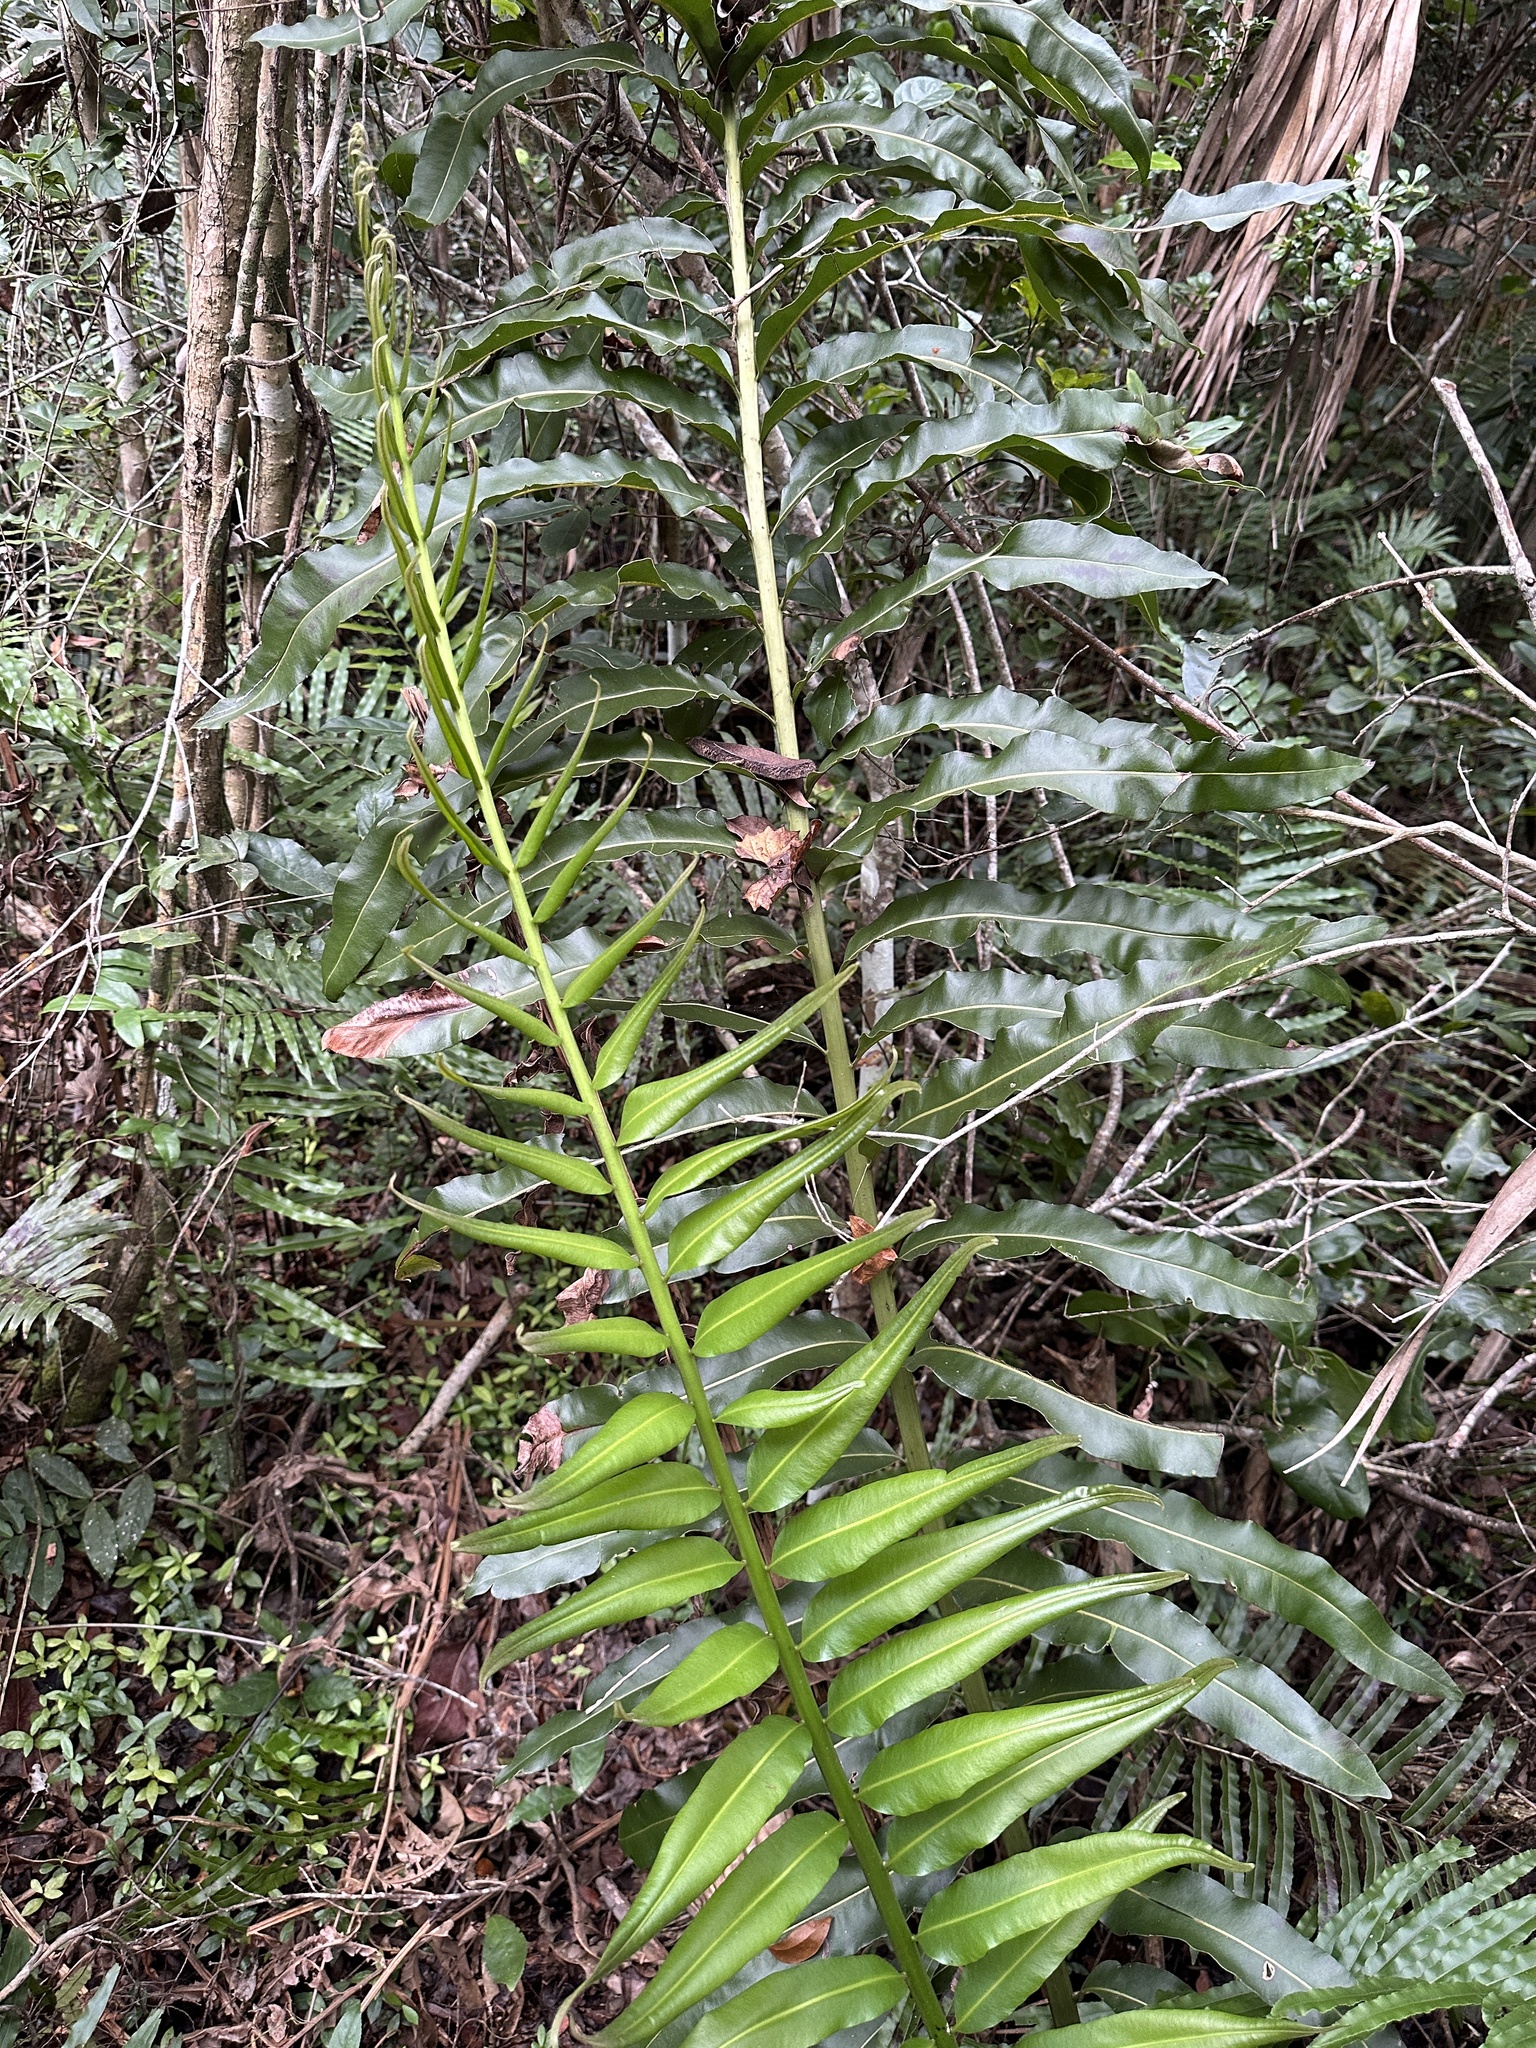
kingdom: Plantae
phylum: Tracheophyta
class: Polypodiopsida
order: Polypodiales
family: Pteridaceae
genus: Acrostichum
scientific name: Acrostichum danaeifolium
